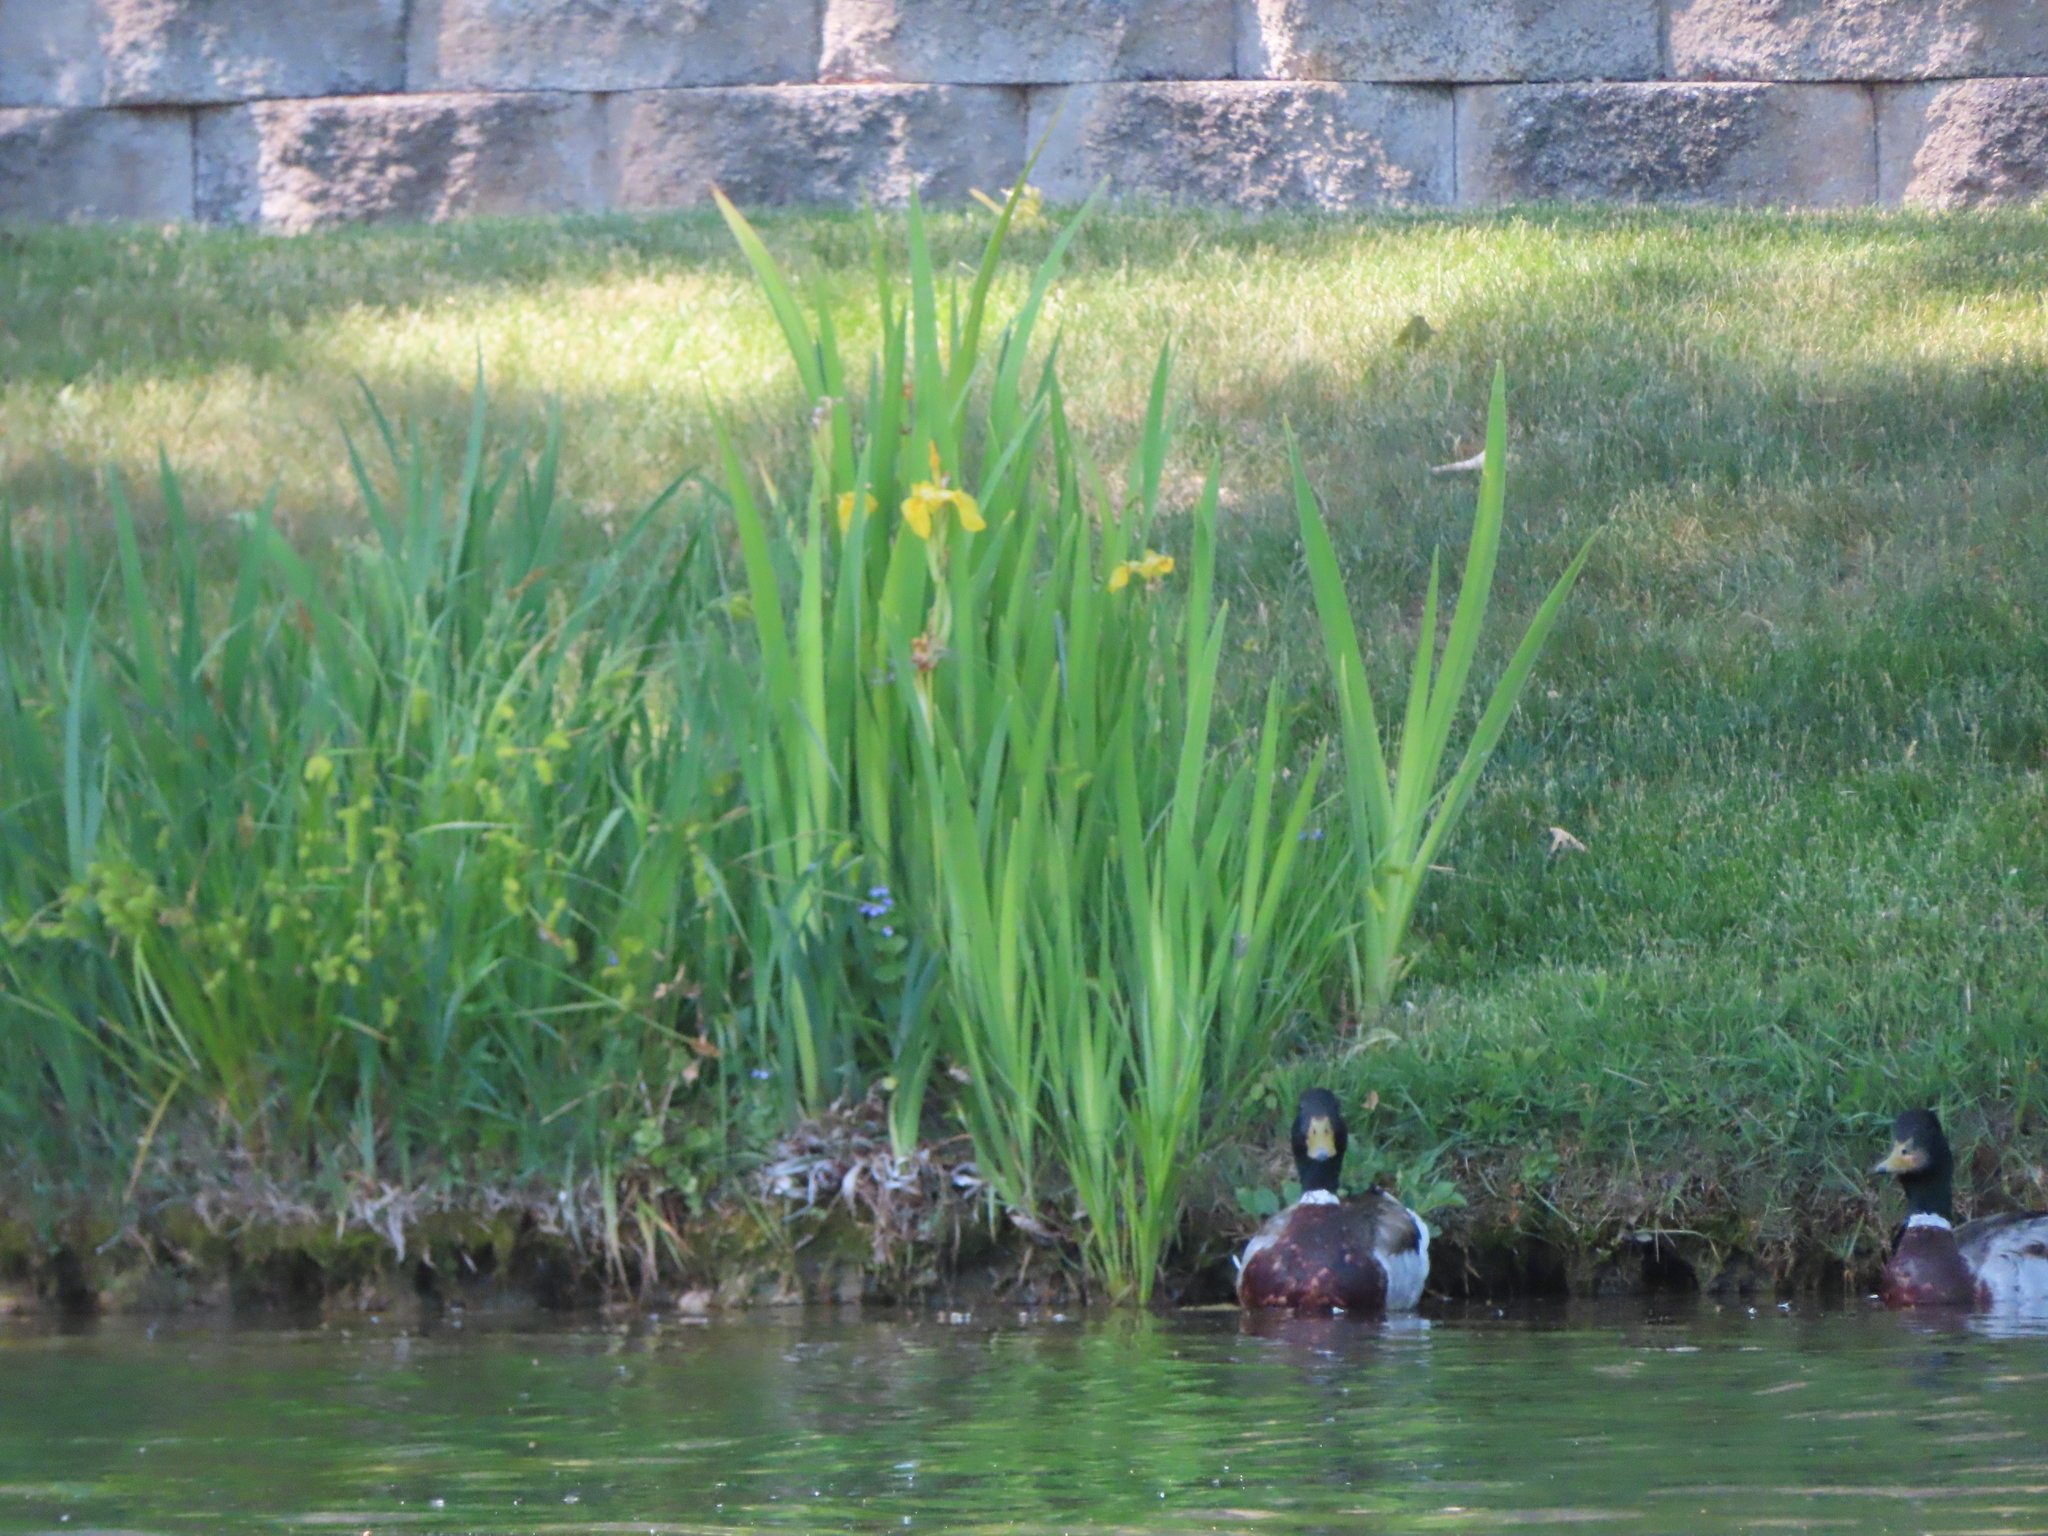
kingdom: Plantae
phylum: Tracheophyta
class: Liliopsida
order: Asparagales
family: Iridaceae
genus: Iris
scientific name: Iris pseudacorus
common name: Yellow flag
